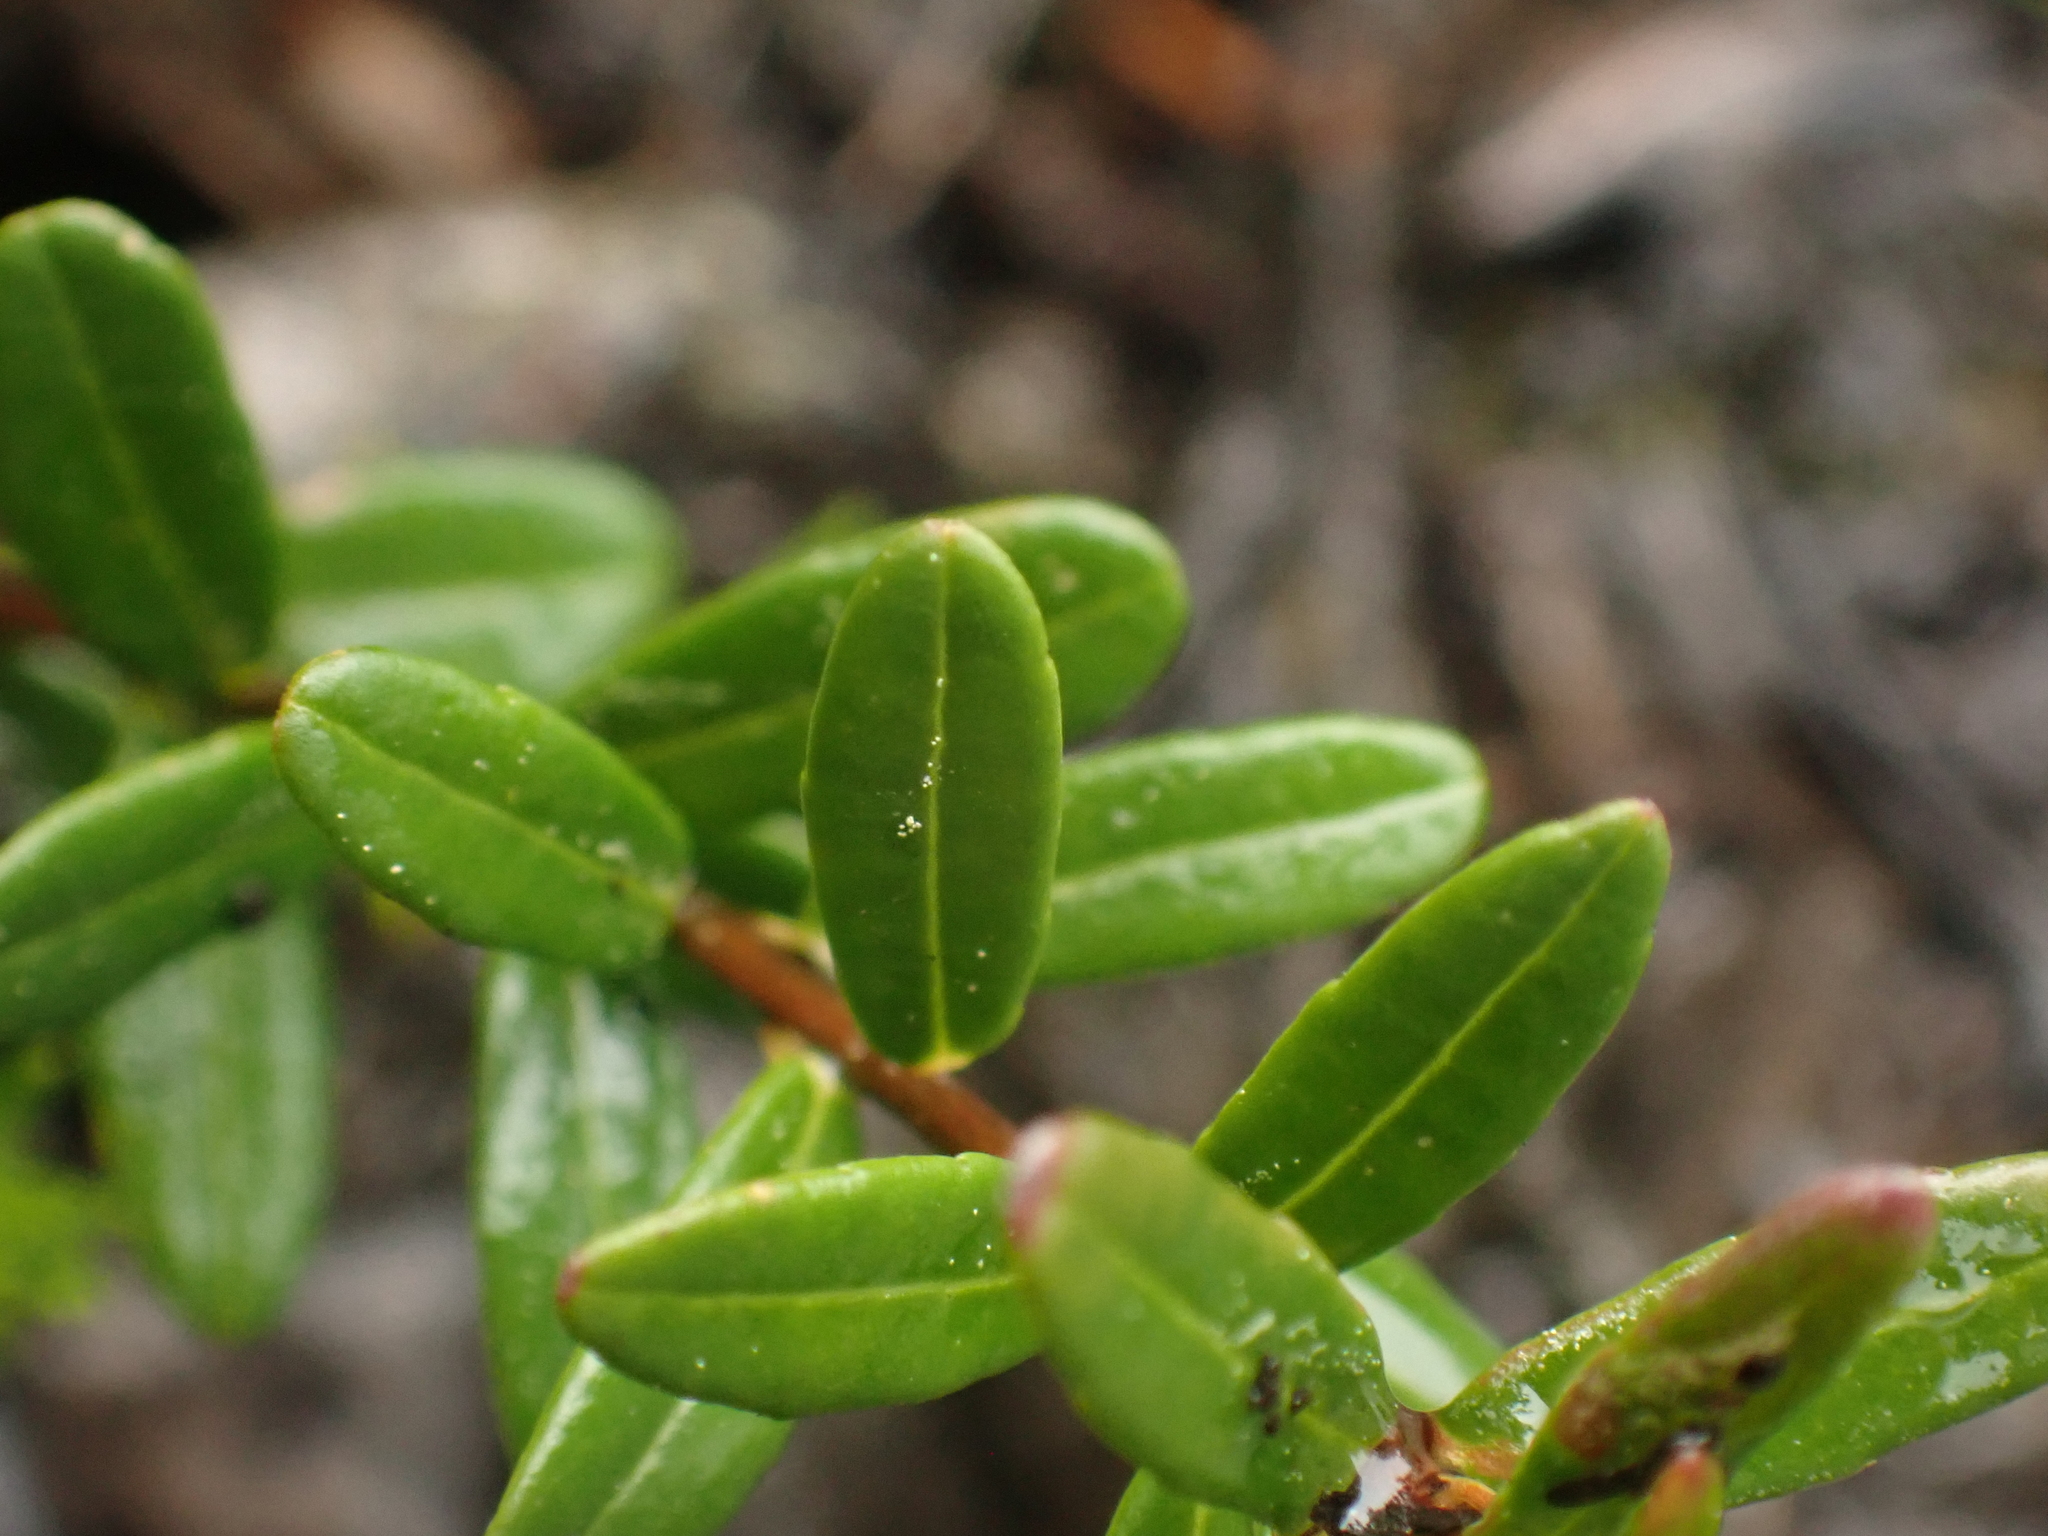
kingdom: Plantae
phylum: Tracheophyta
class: Magnoliopsida
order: Ericales
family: Ericaceae
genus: Vaccinium
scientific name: Vaccinium macrocarpon
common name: American cranberry
